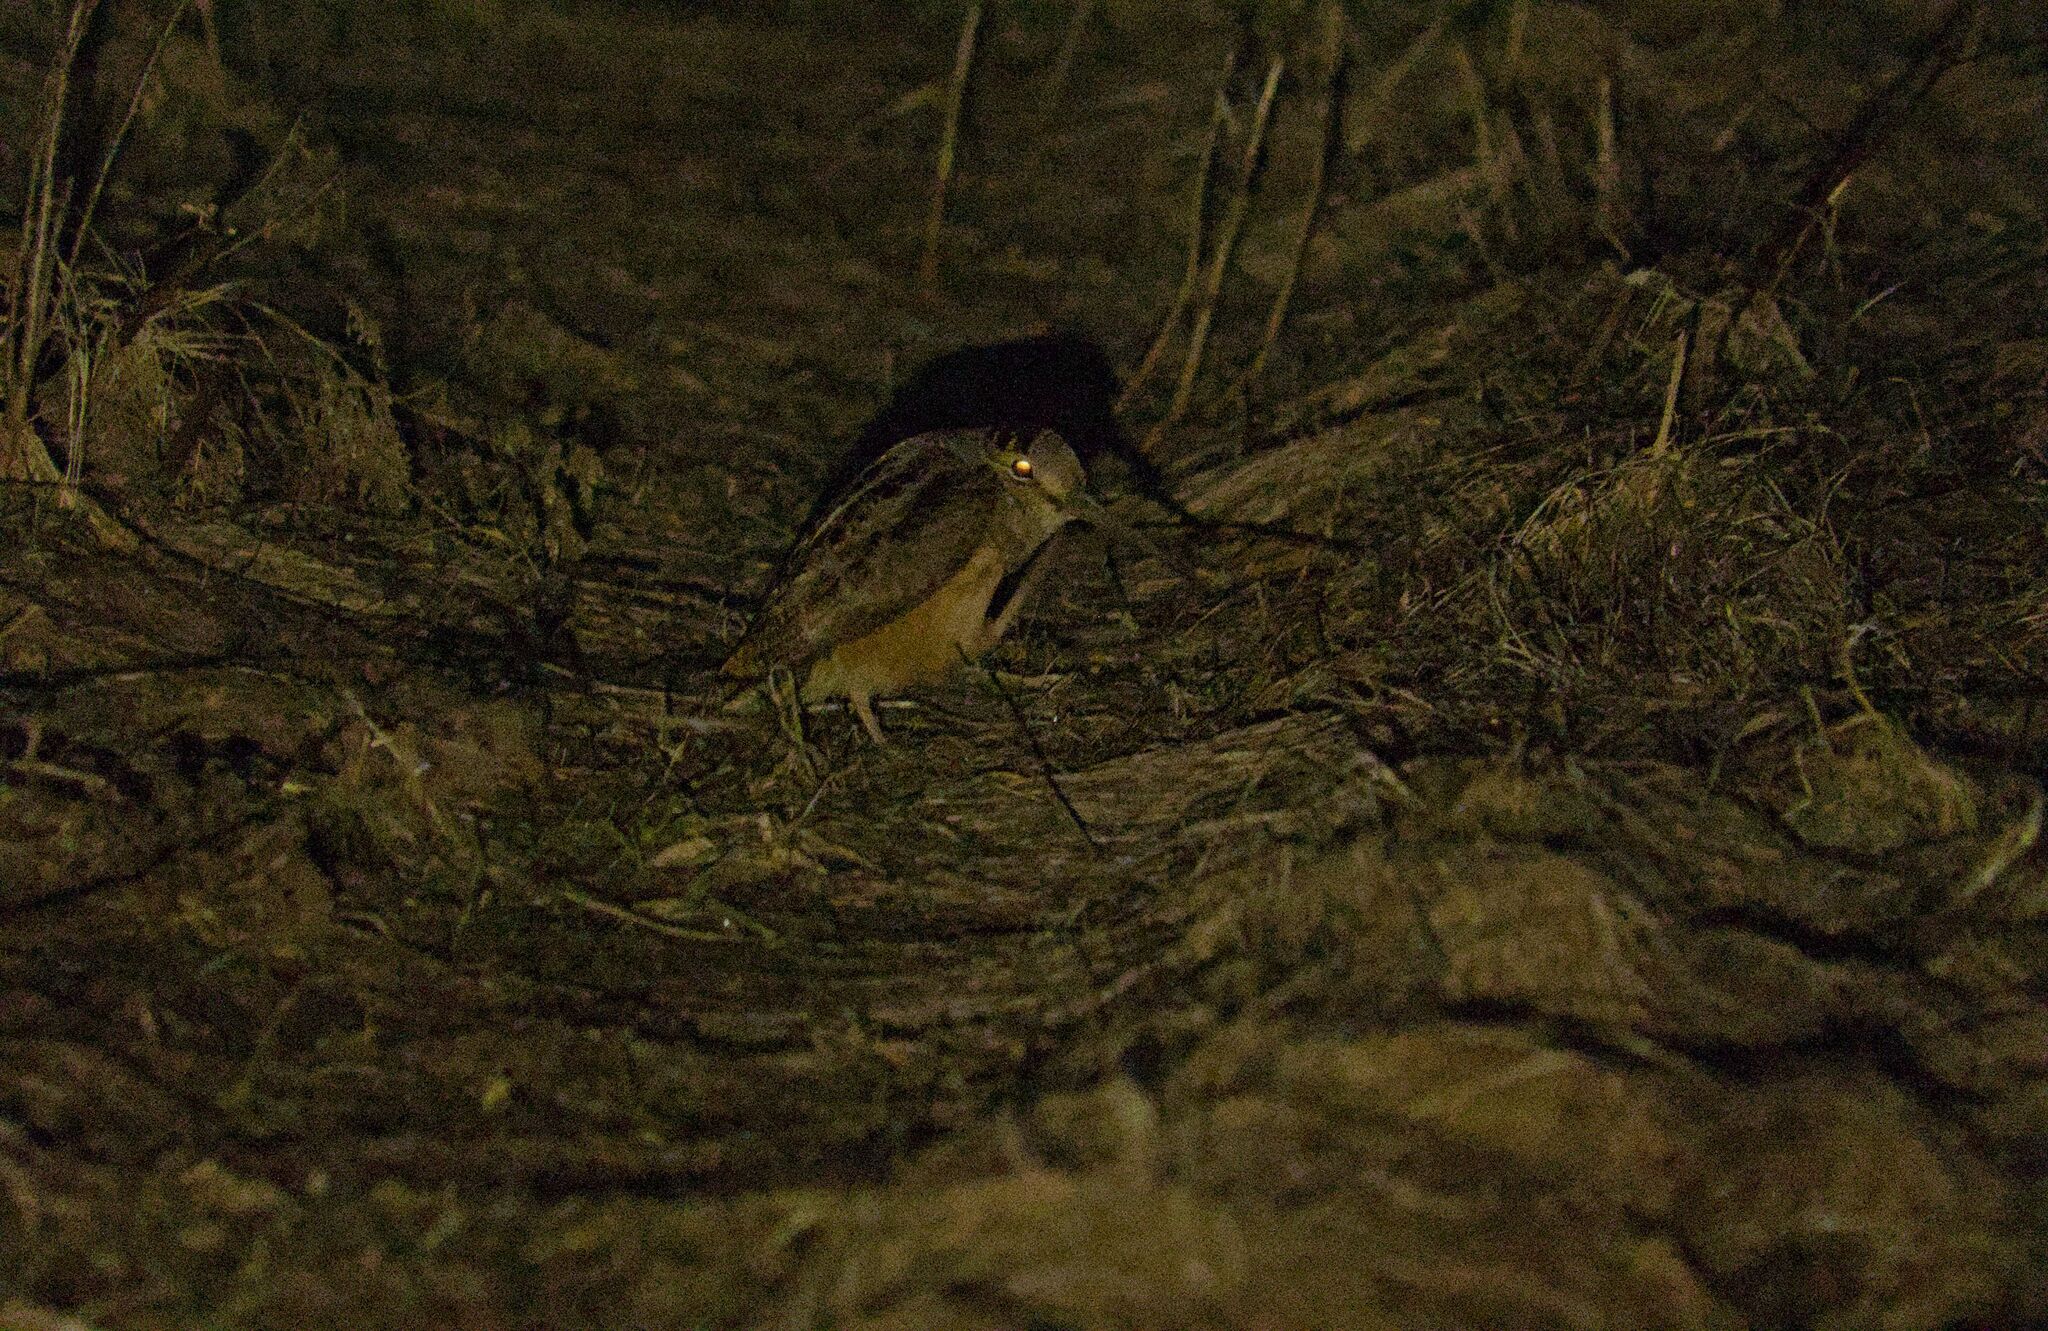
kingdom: Animalia
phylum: Chordata
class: Aves
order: Charadriiformes
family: Scolopacidae
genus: Scolopax
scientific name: Scolopax minor
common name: American woodcock
